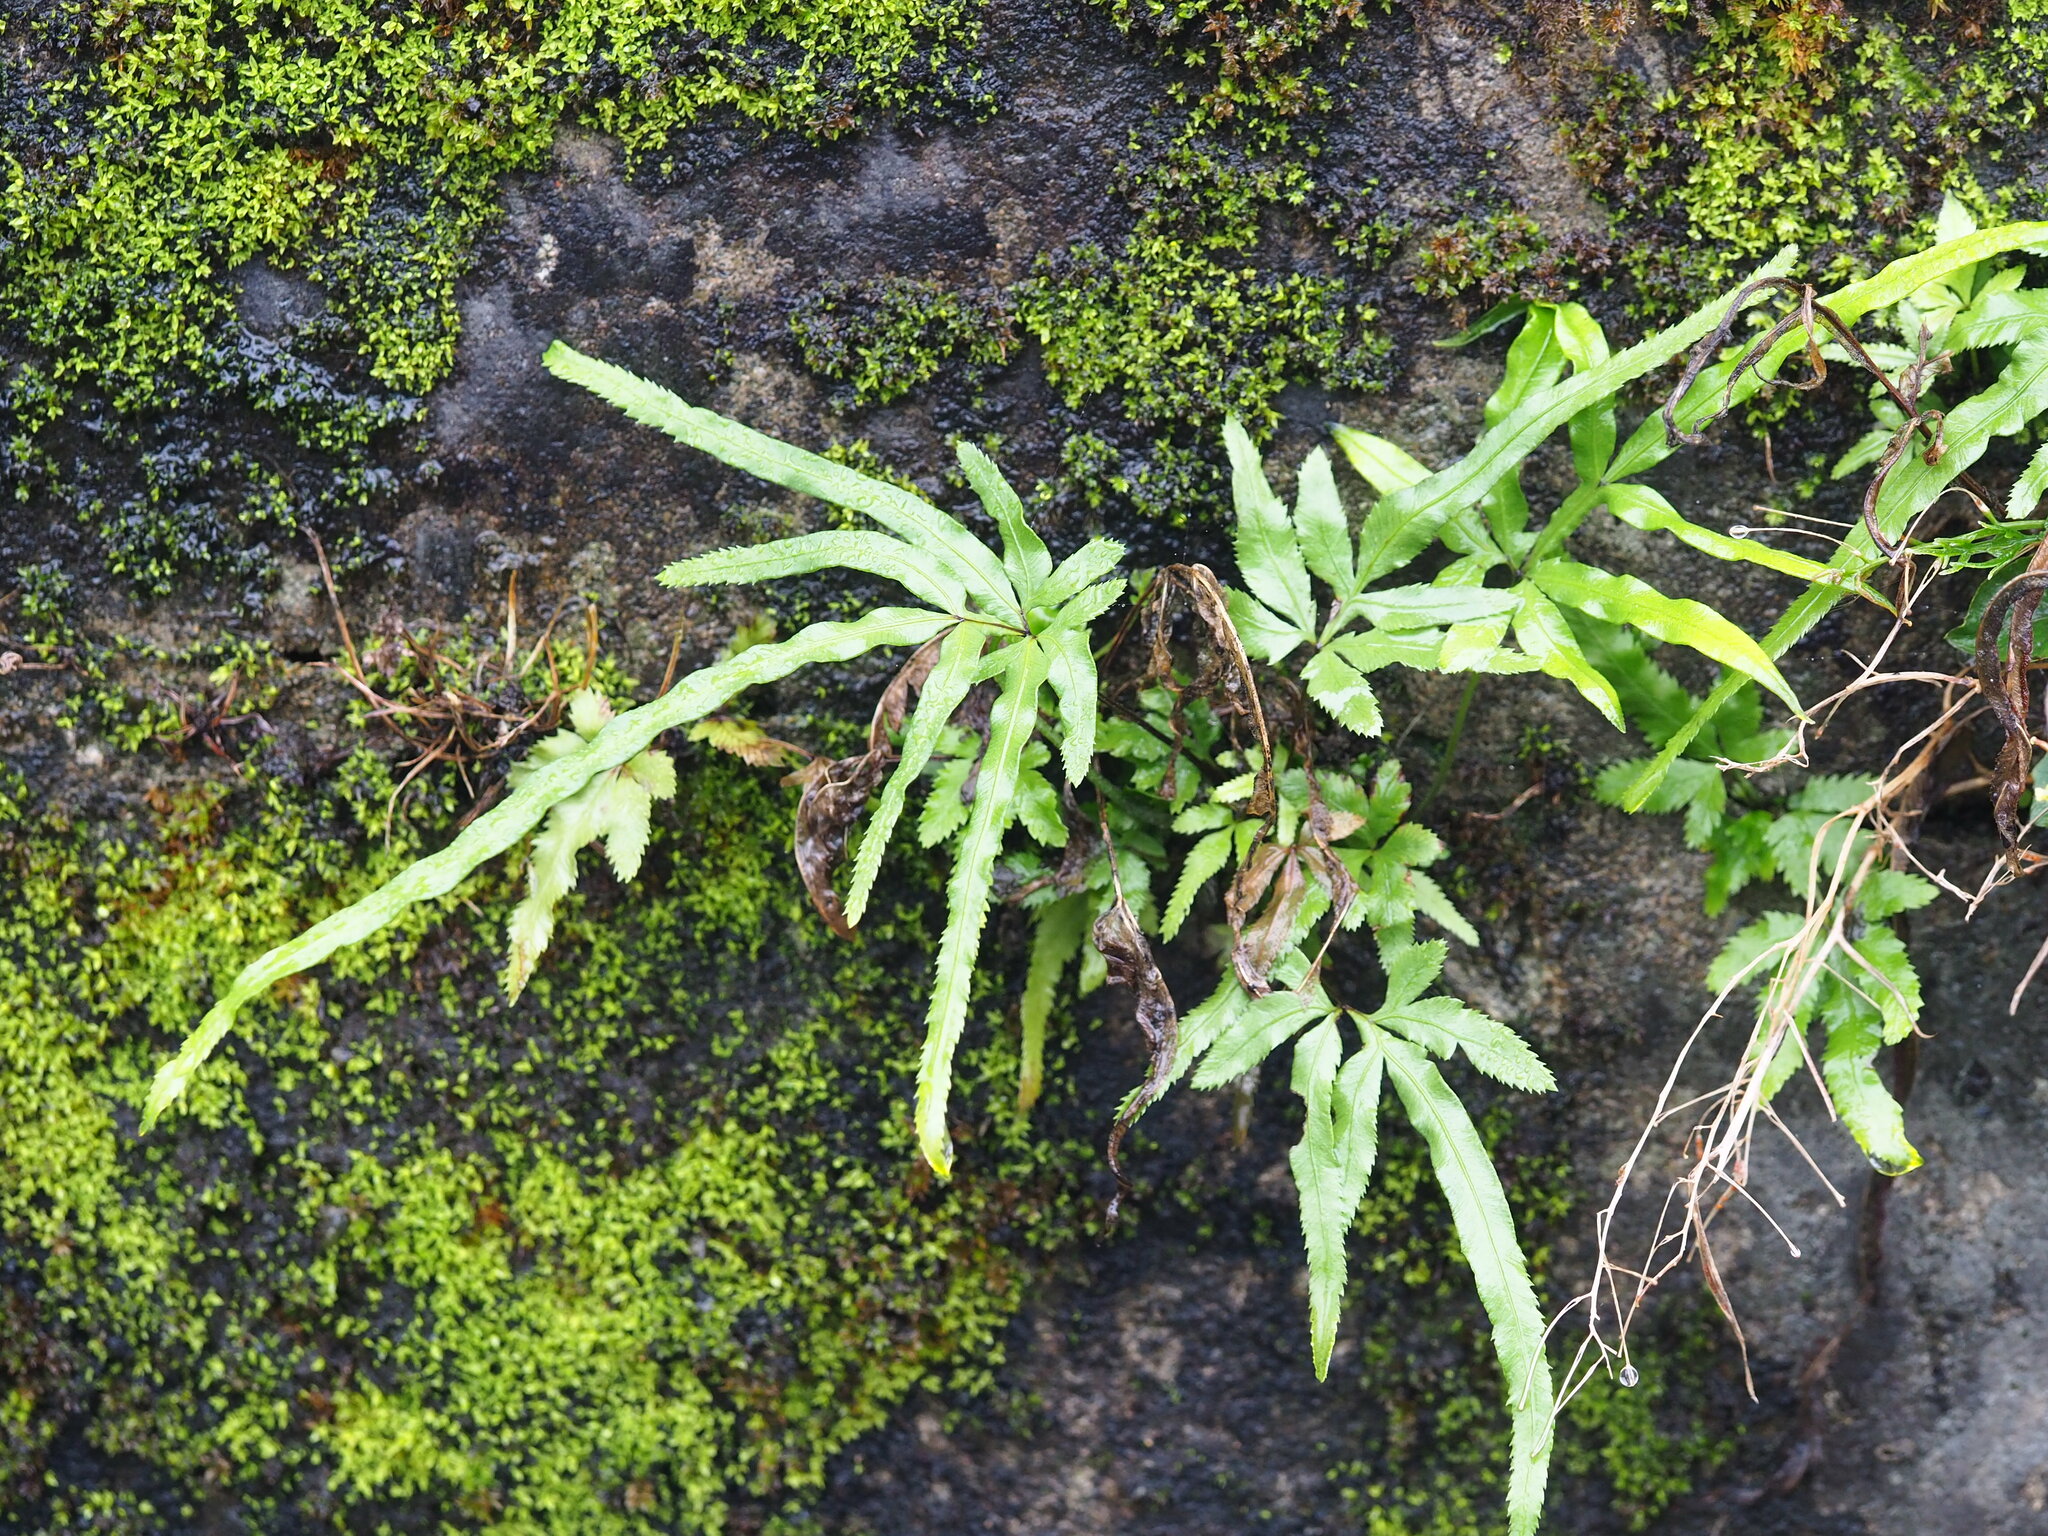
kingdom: Plantae
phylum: Tracheophyta
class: Polypodiopsida
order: Polypodiales
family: Pteridaceae
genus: Pteris
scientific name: Pteris multifida
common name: Spider brake
